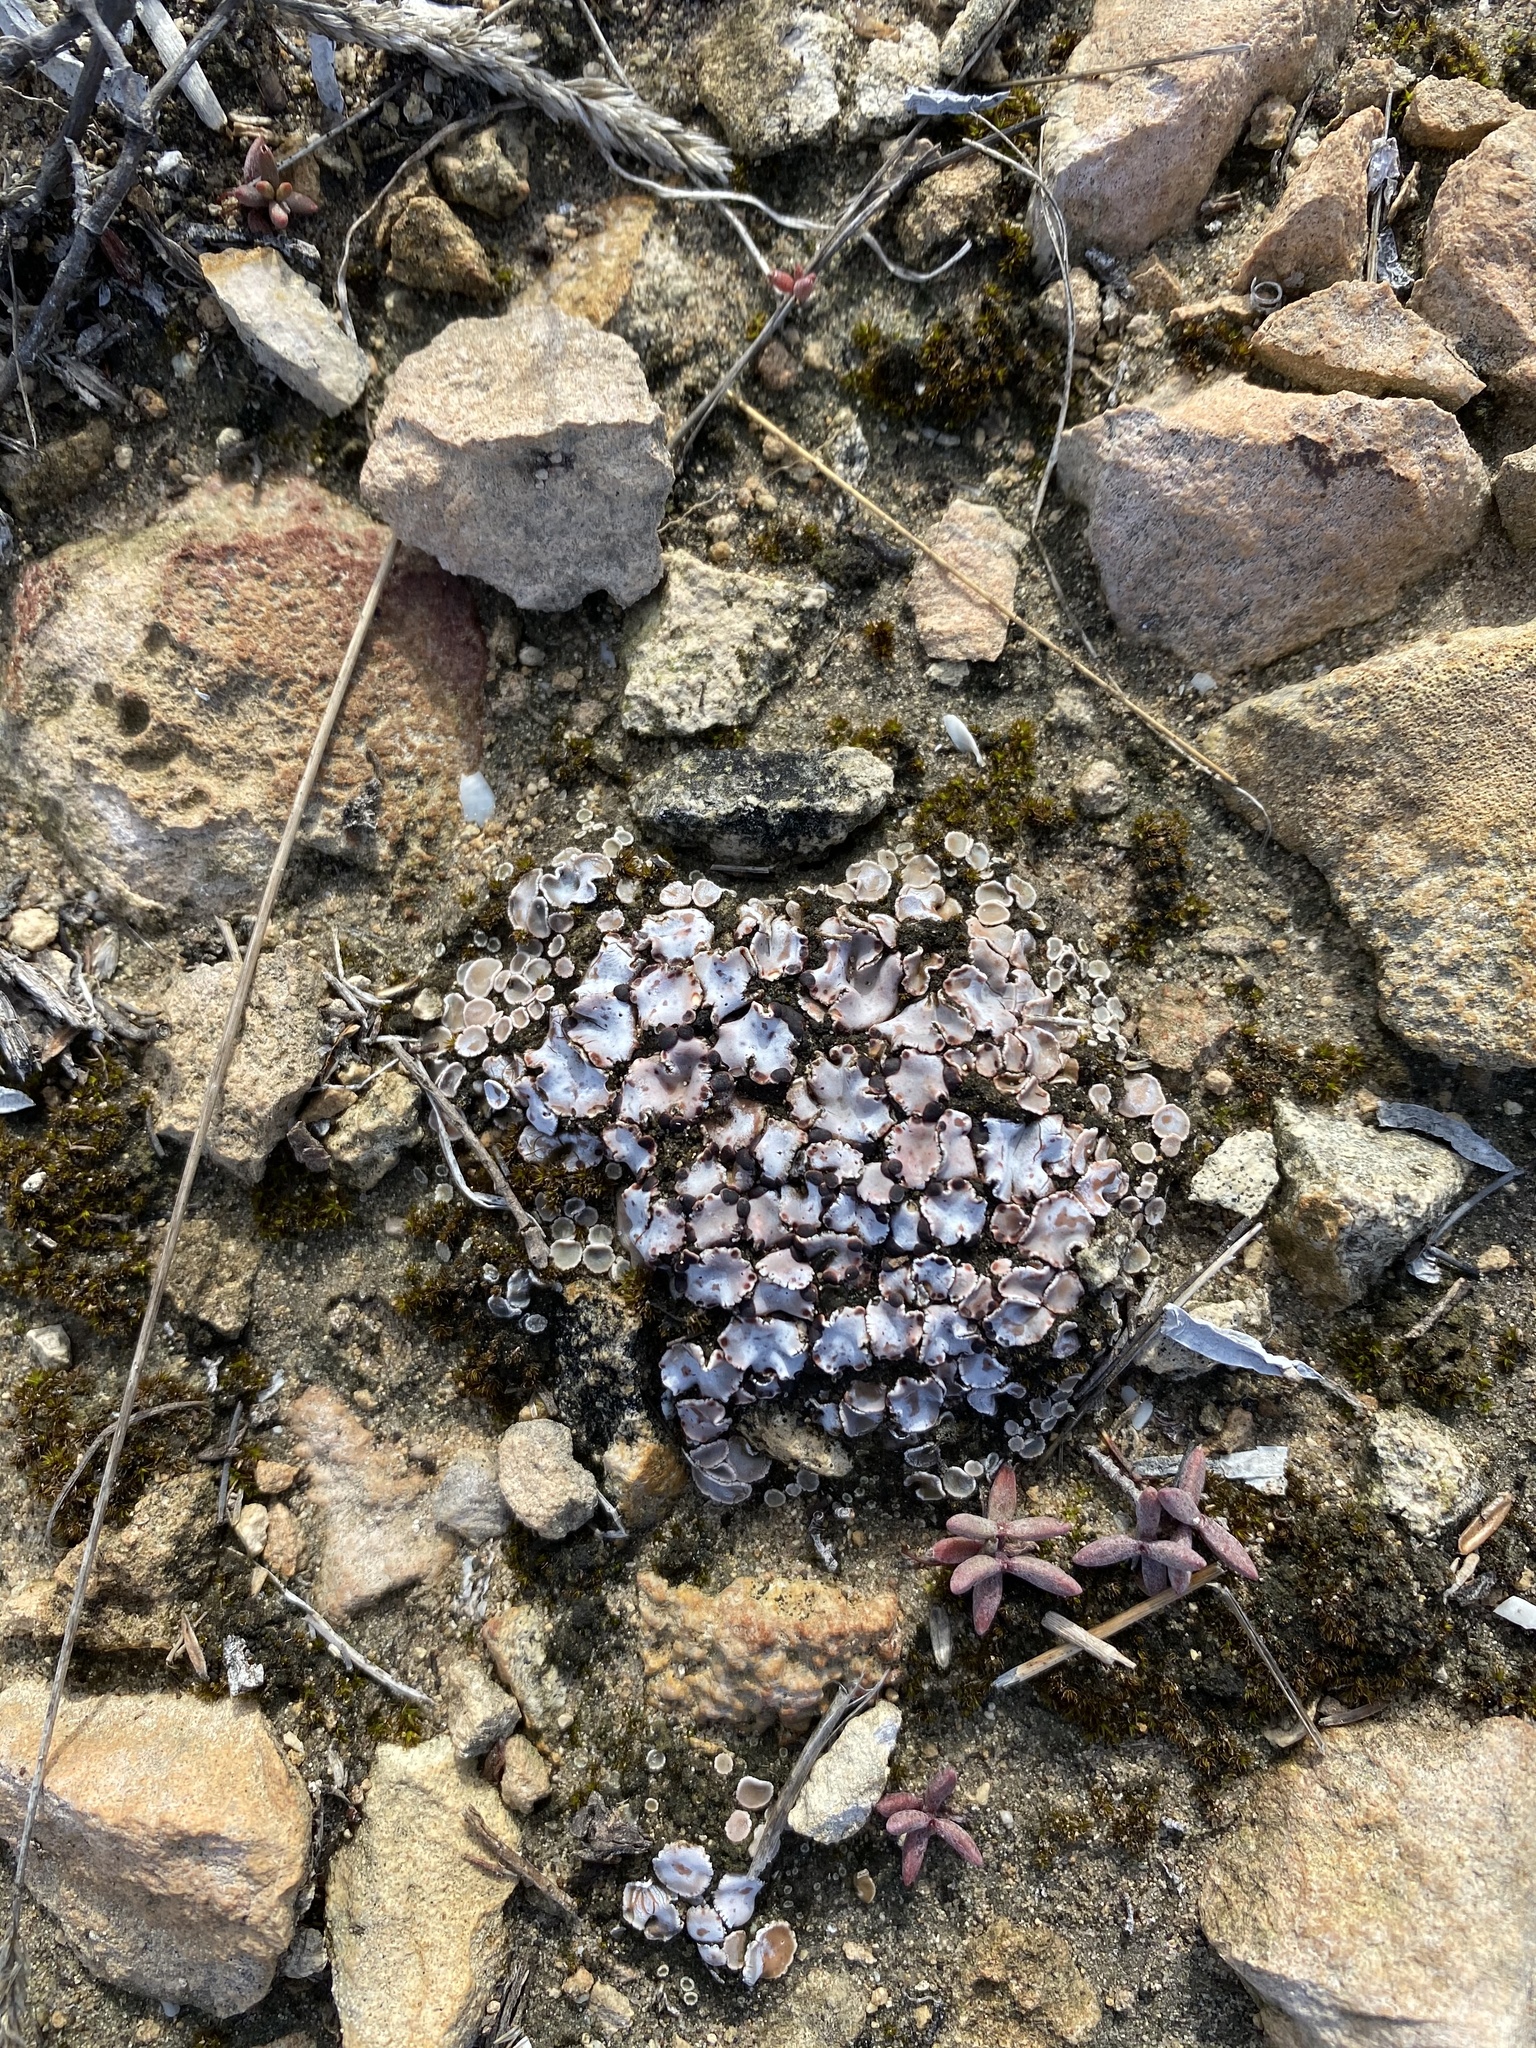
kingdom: Fungi
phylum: Ascomycota
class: Lecanoromycetes
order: Lecanorales
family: Psoraceae
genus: Psora
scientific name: Psora crenata
